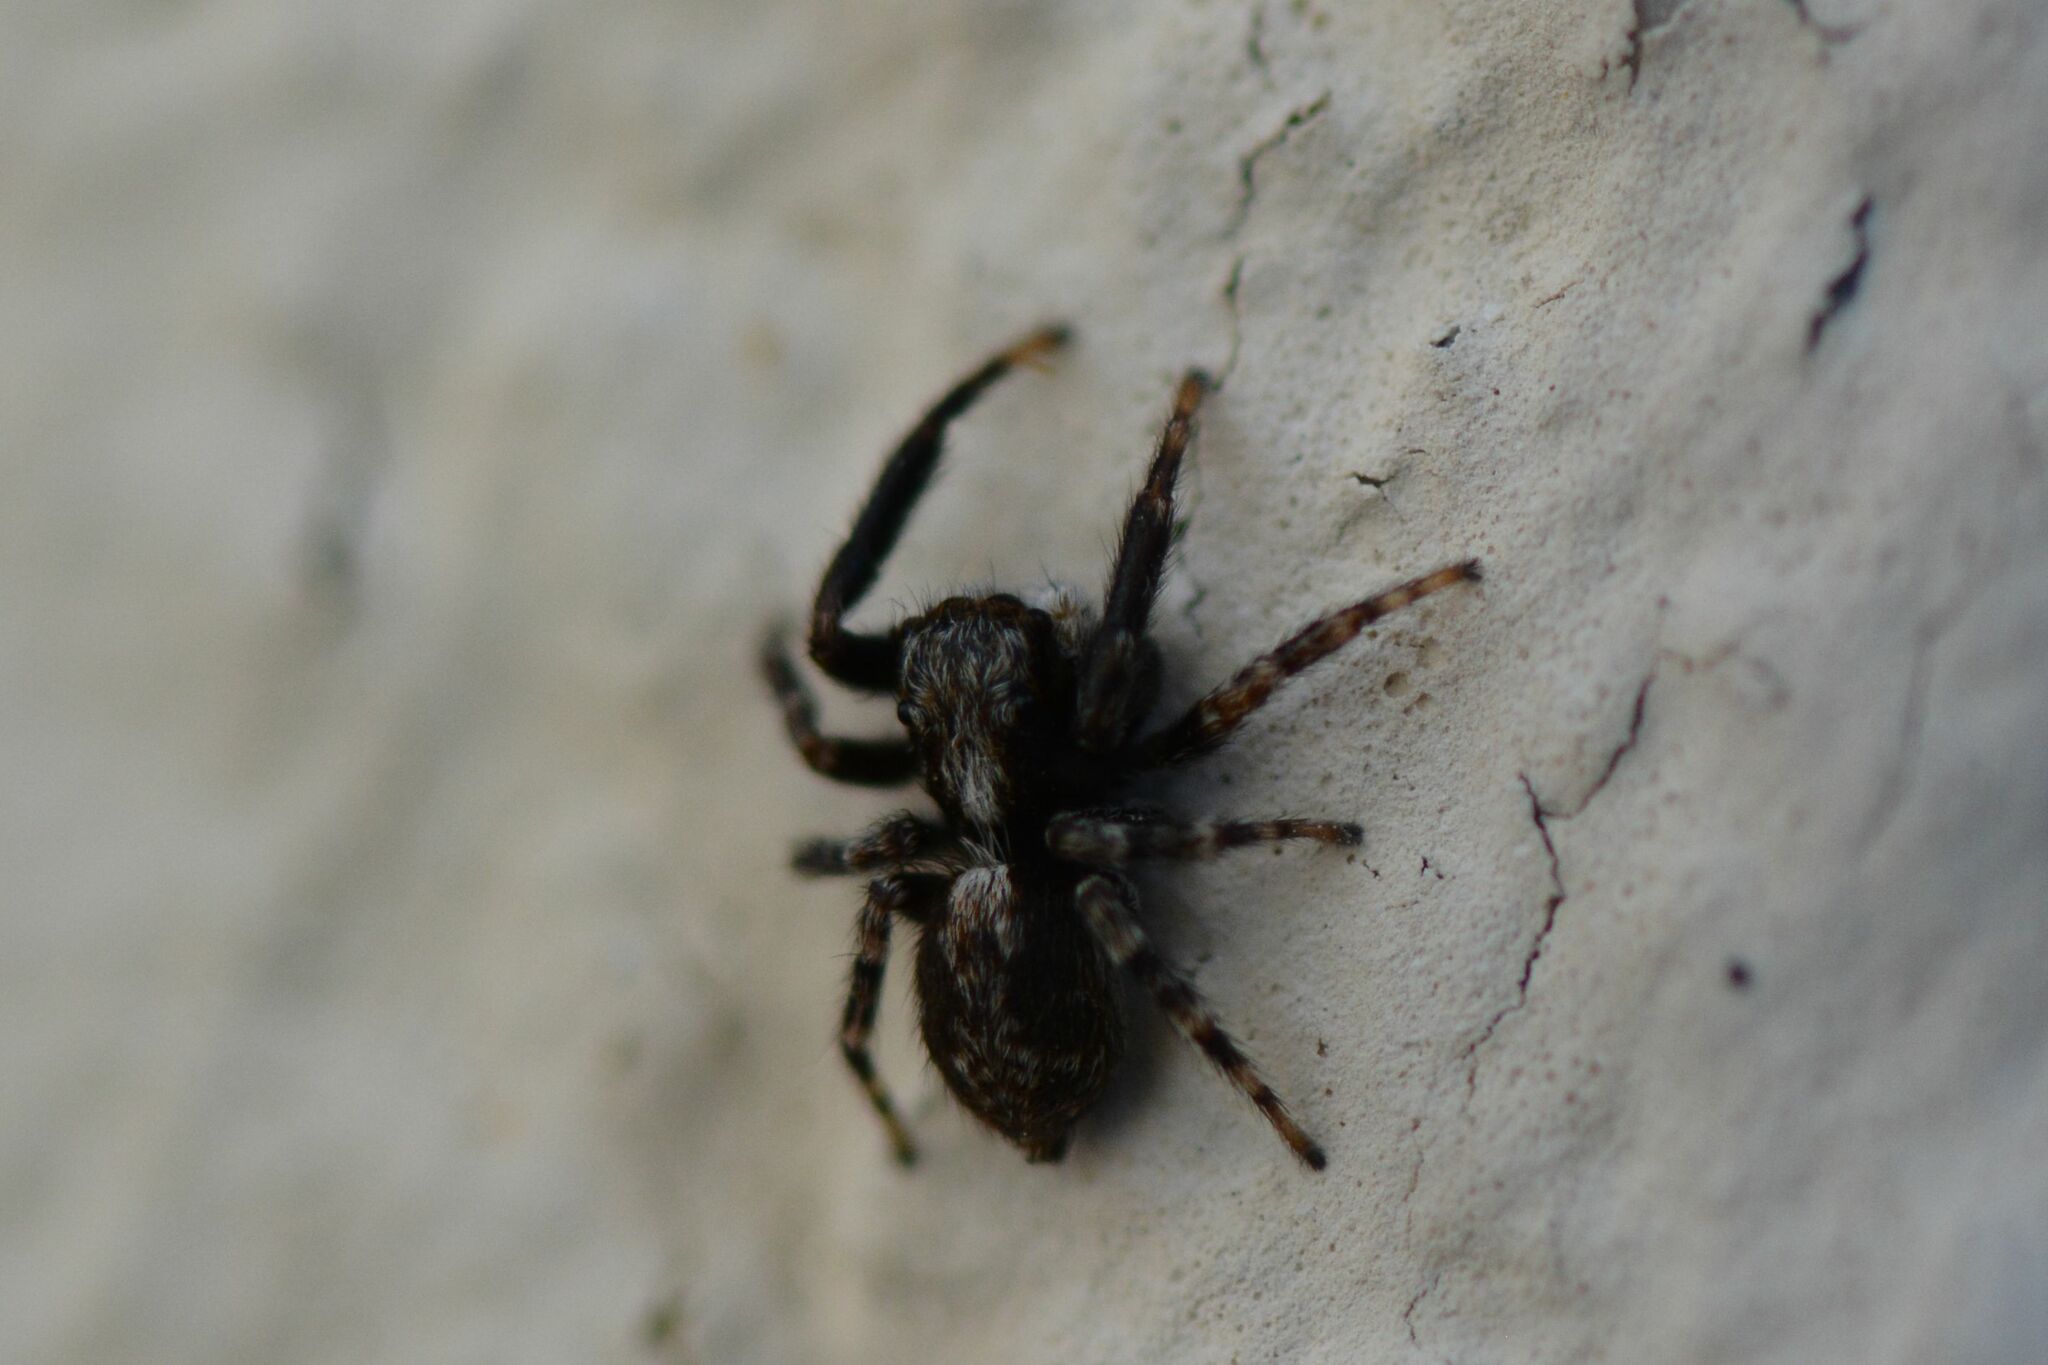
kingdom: Animalia
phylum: Arthropoda
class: Arachnida
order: Araneae
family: Salticidae
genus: Pseudeuophrys
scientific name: Pseudeuophrys lanigera
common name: Jumping spider
